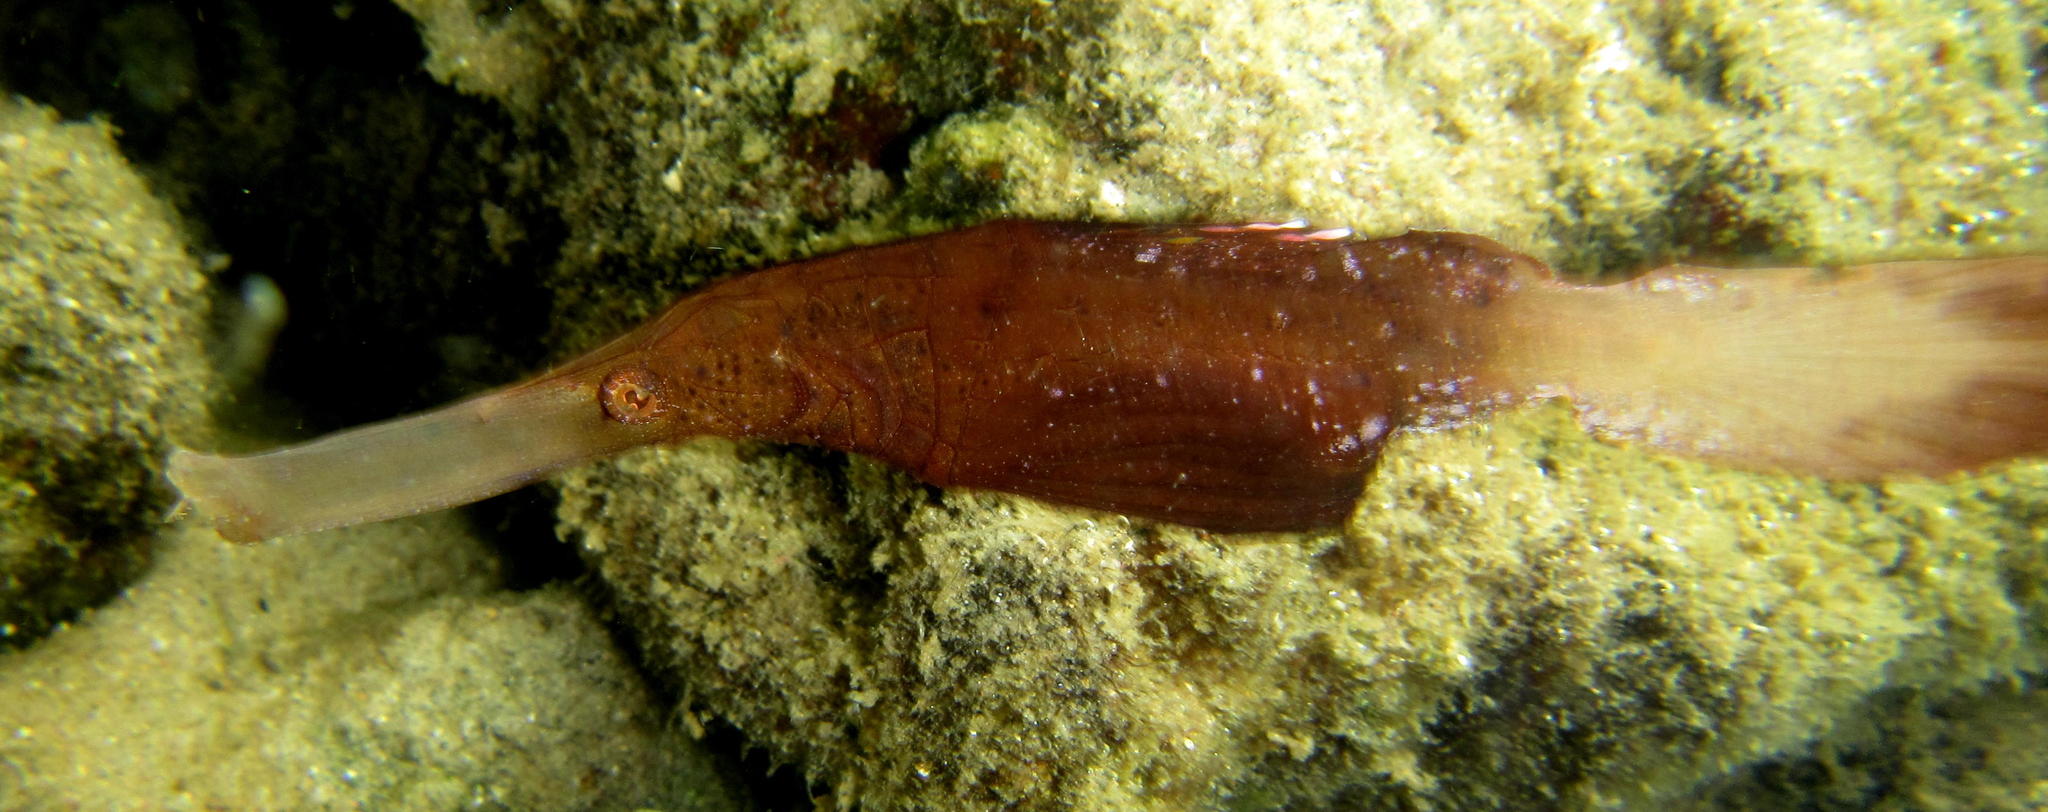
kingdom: Animalia
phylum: Chordata
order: Syngnathiformes
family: Solenostomidae
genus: Solenostomus
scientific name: Solenostomus cyanopterus
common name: Blue-finned ghost pipefish
